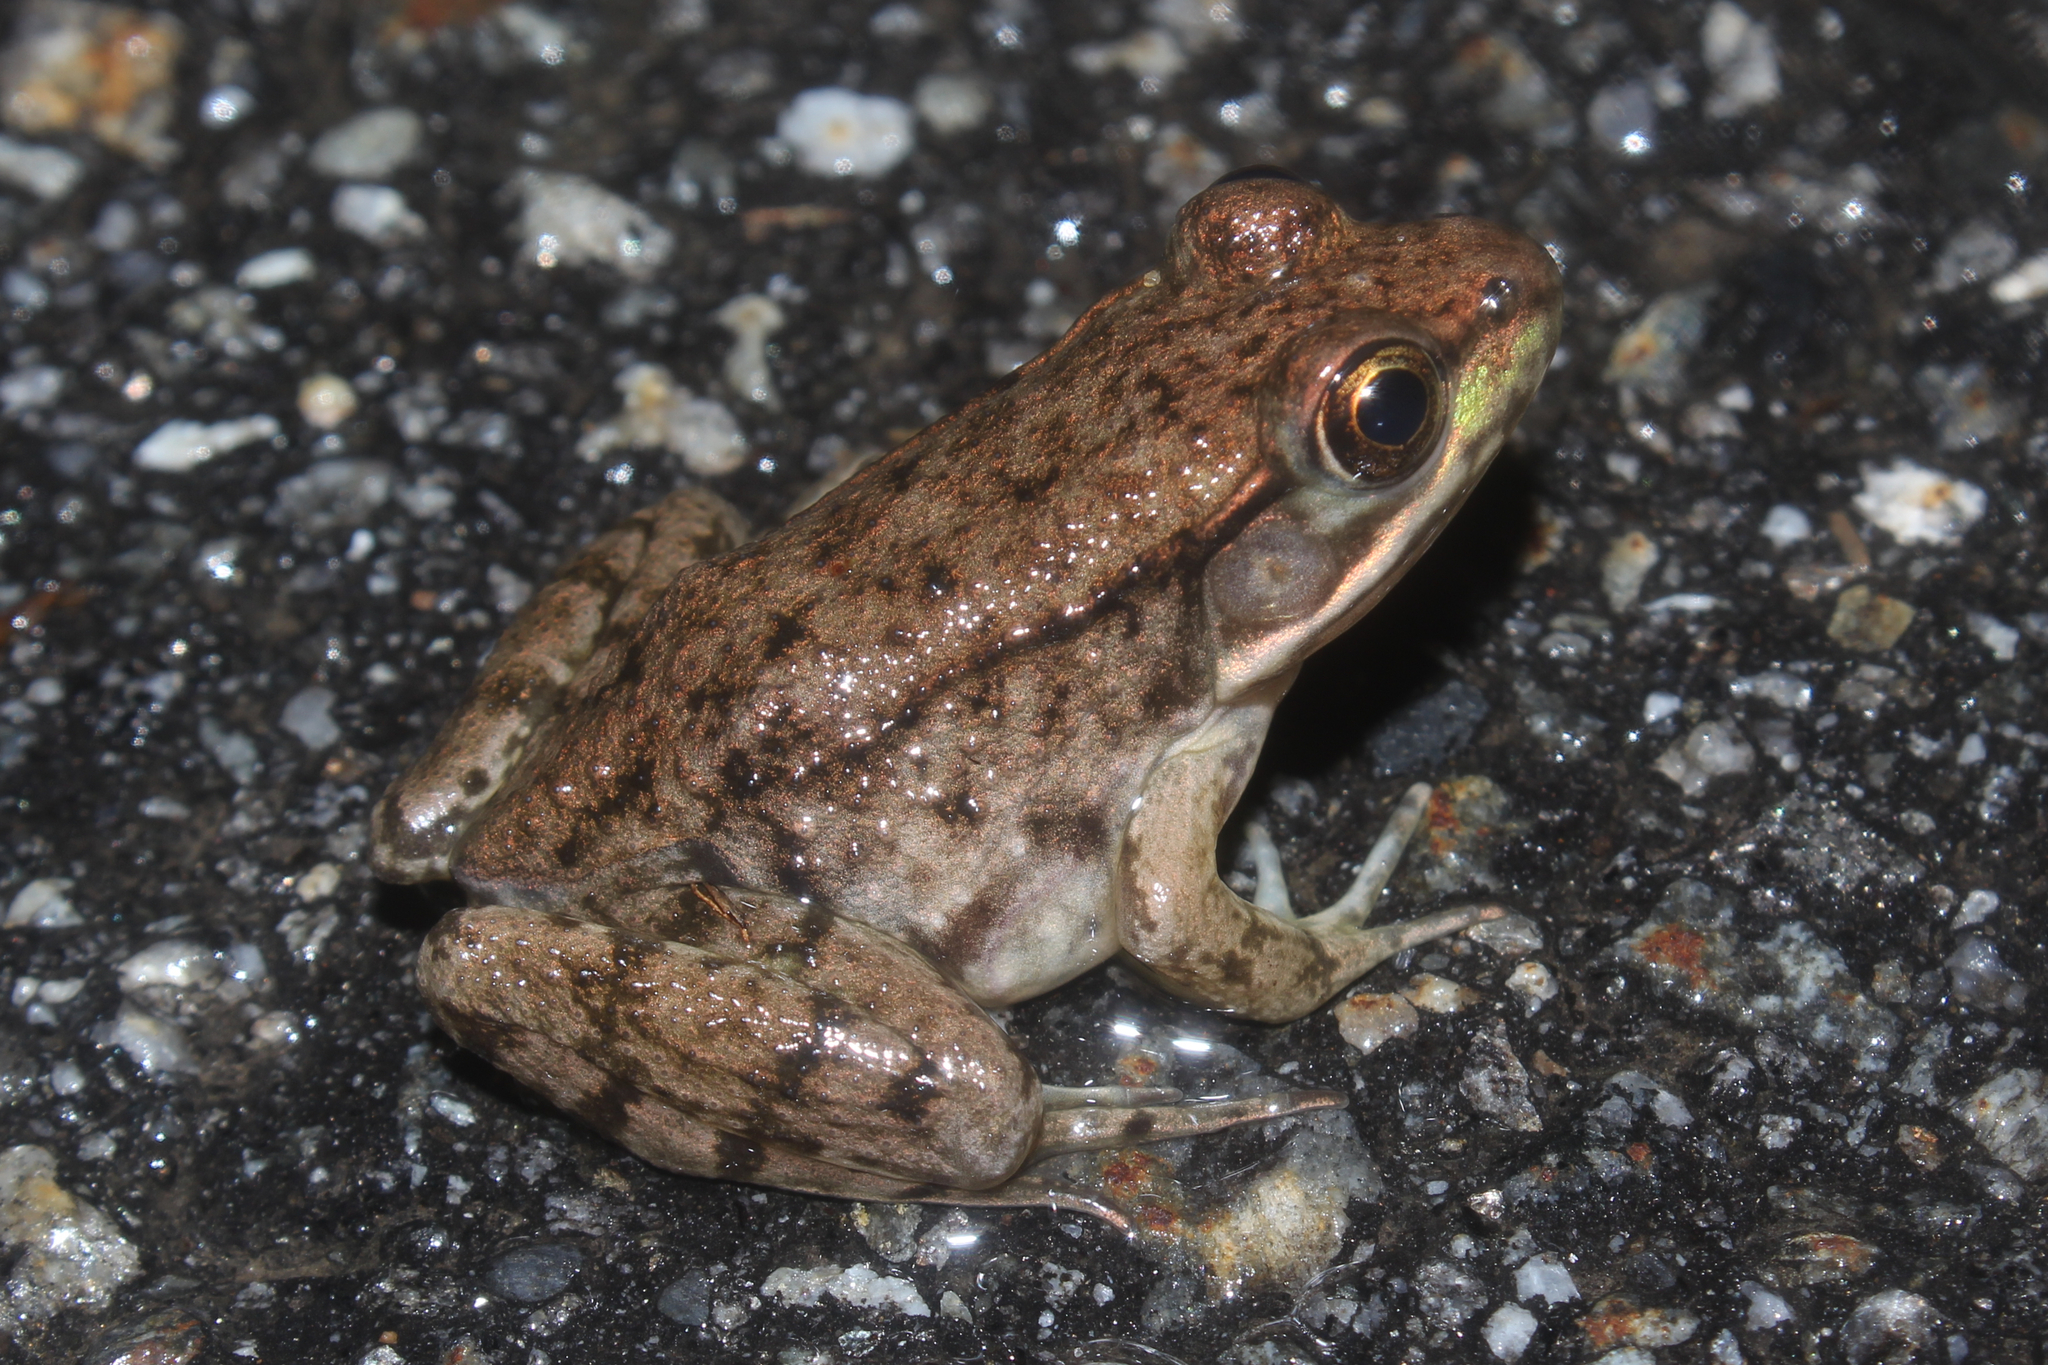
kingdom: Animalia
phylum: Chordata
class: Amphibia
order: Anura
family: Ranidae
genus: Lithobates
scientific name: Lithobates clamitans
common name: Green frog
